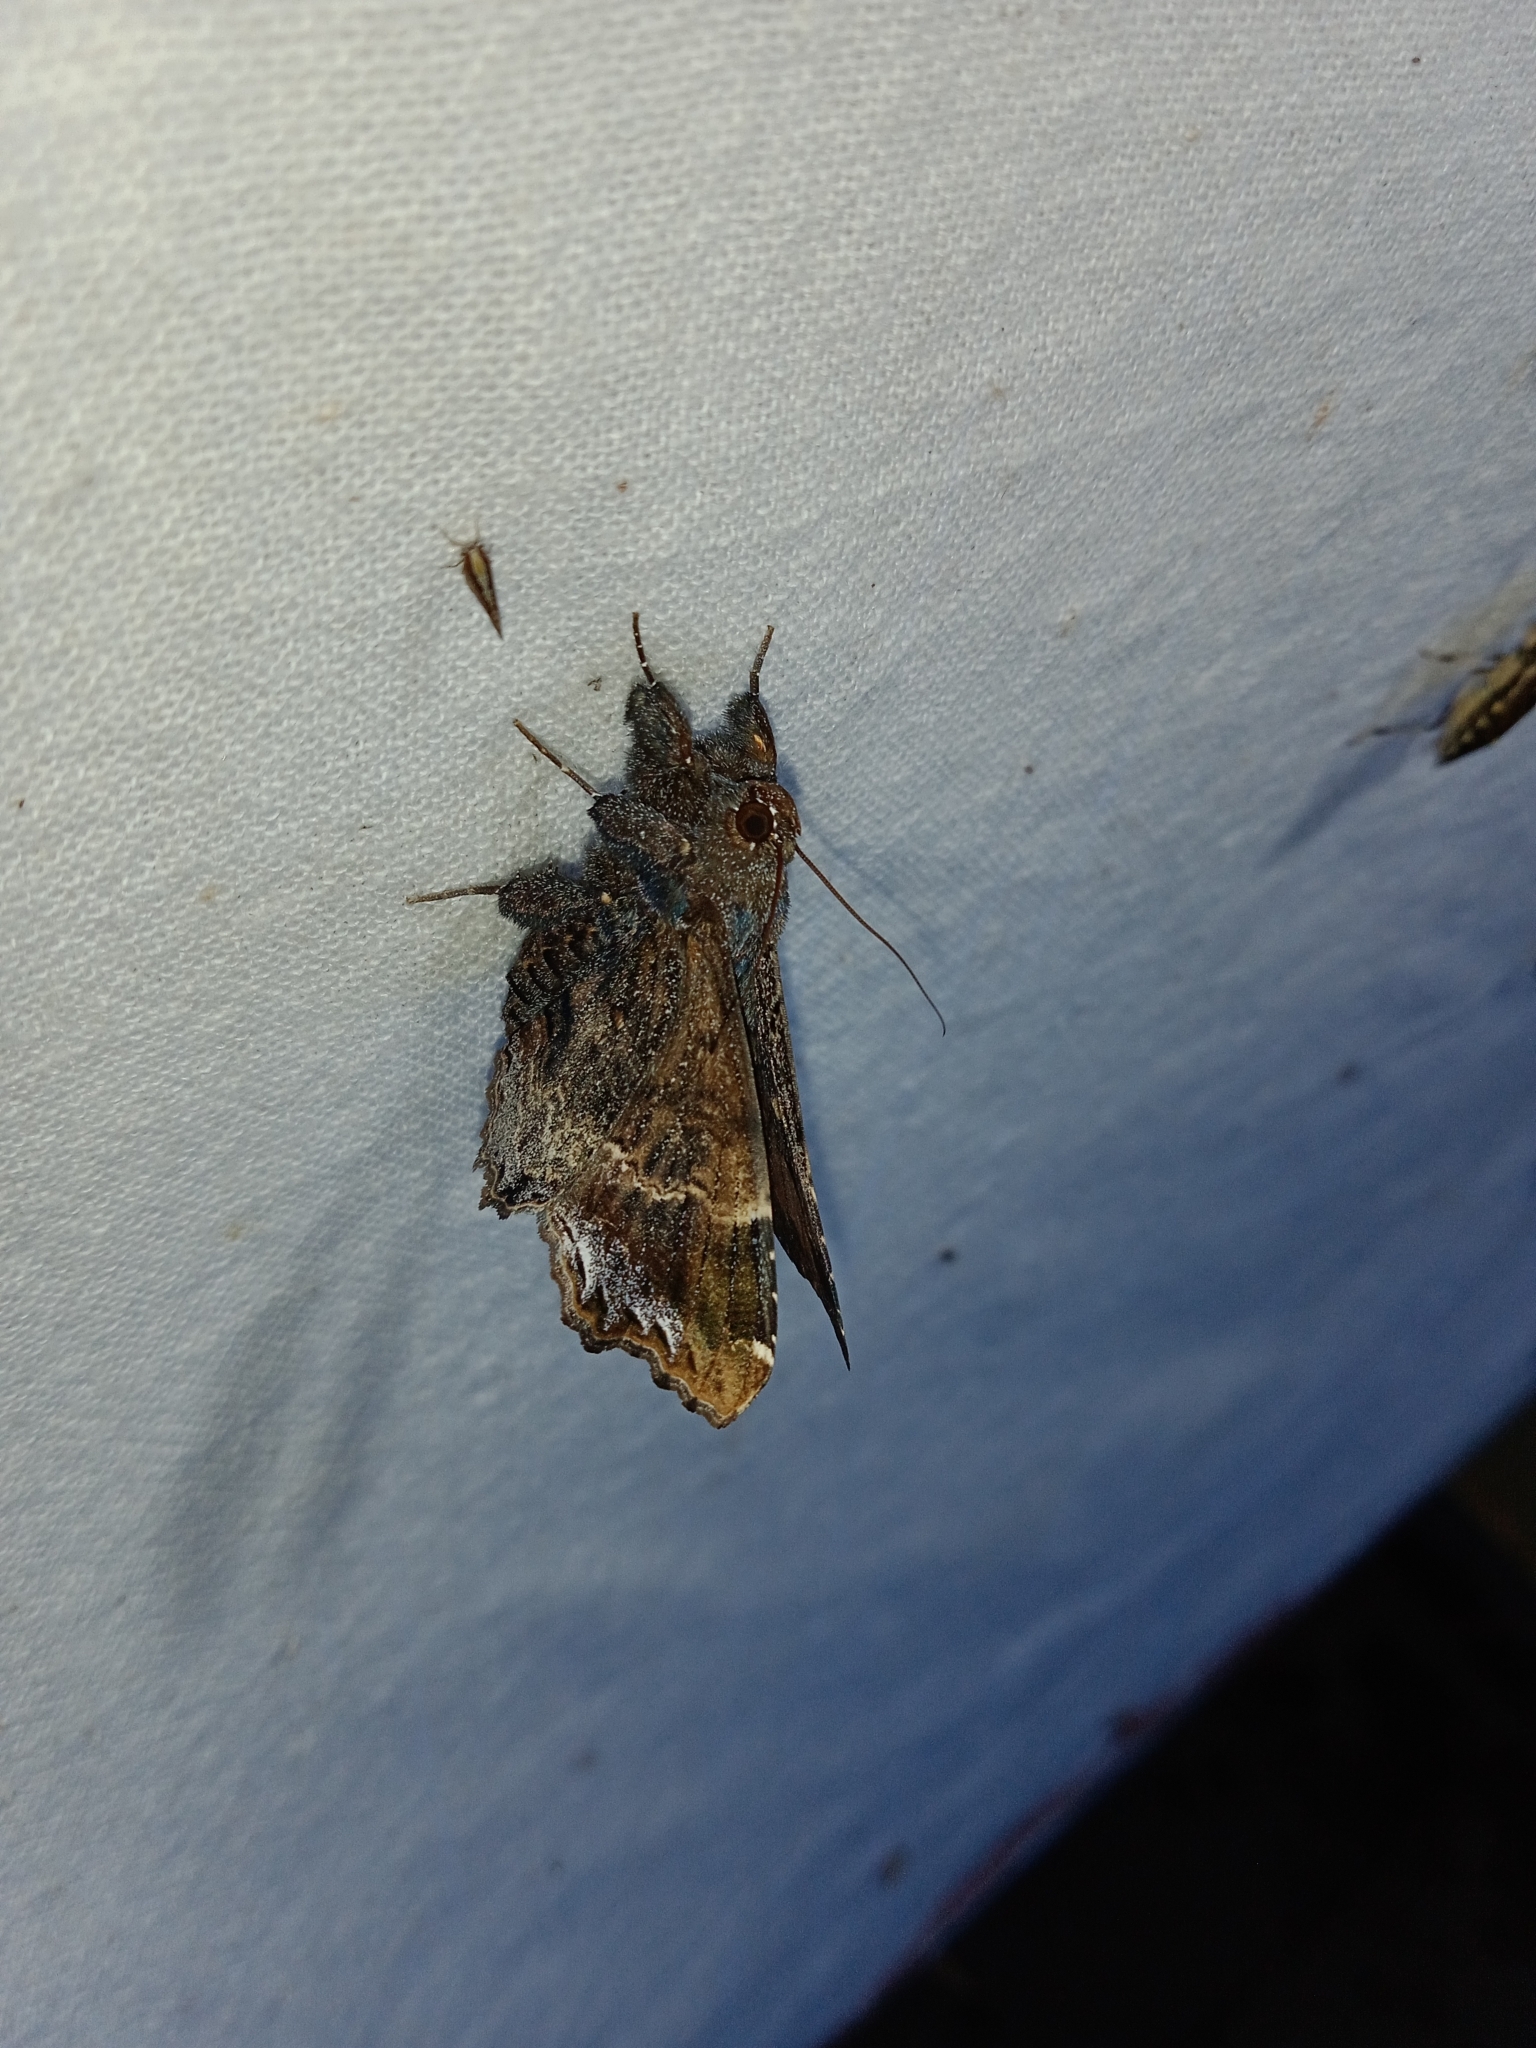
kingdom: Animalia
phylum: Arthropoda
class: Insecta
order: Lepidoptera
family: Erebidae
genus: Lacera
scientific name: Lacera noctilio
